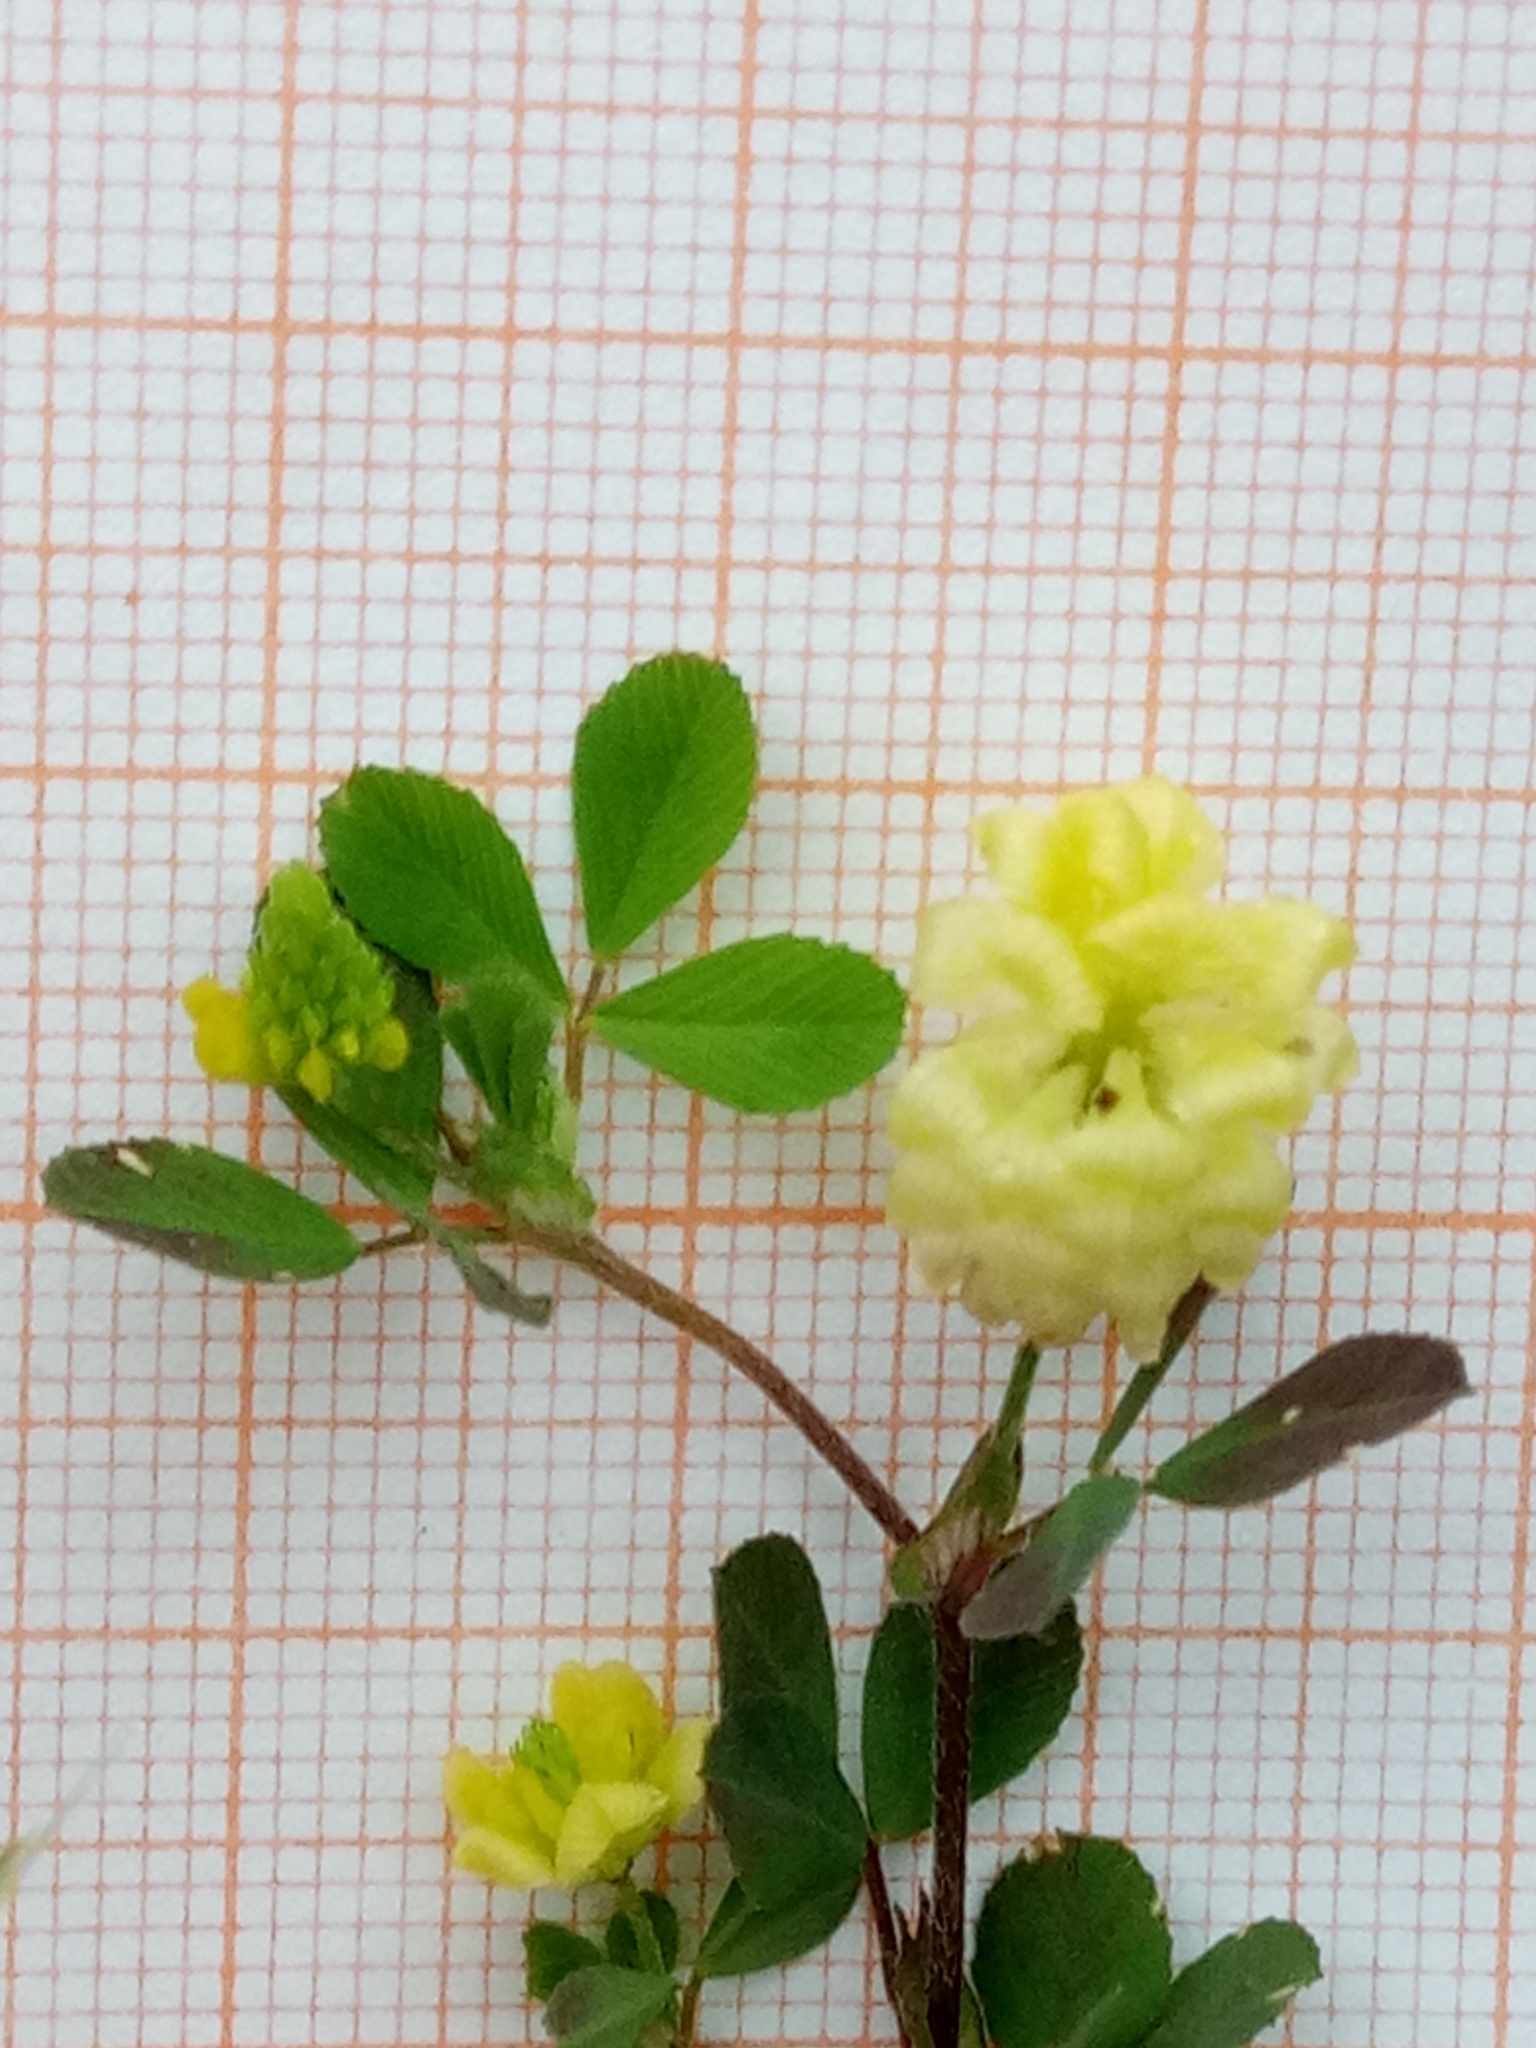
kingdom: Plantae
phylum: Tracheophyta
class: Magnoliopsida
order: Fabales
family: Fabaceae
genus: Trifolium
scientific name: Trifolium campestre
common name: Field clover
